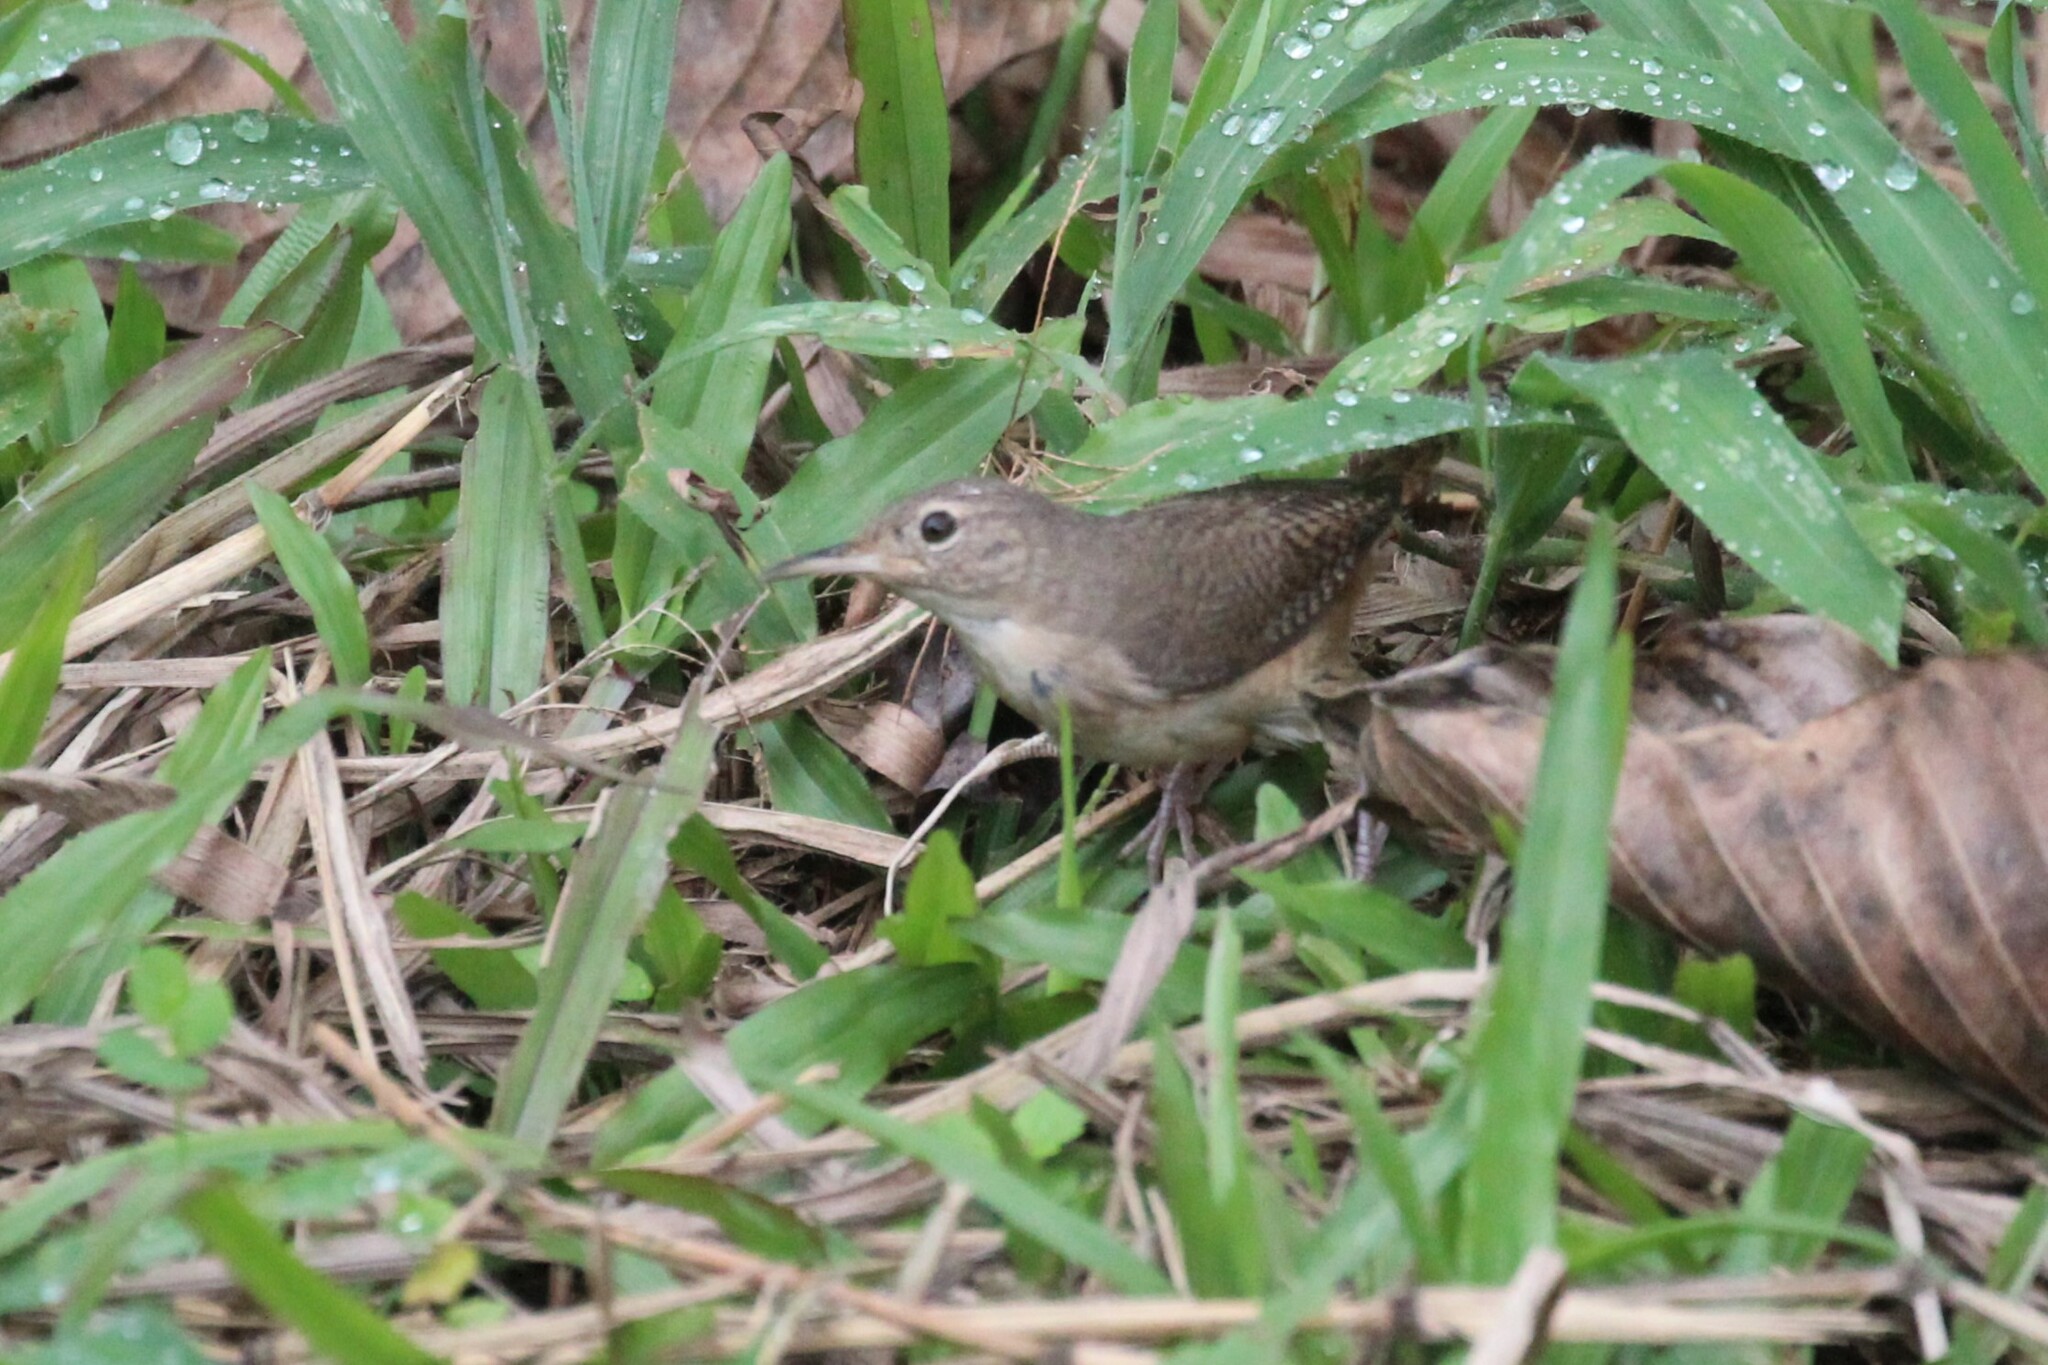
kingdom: Animalia
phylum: Chordata
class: Aves
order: Passeriformes
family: Troglodytidae
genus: Troglodytes
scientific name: Troglodytes aedon
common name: House wren
